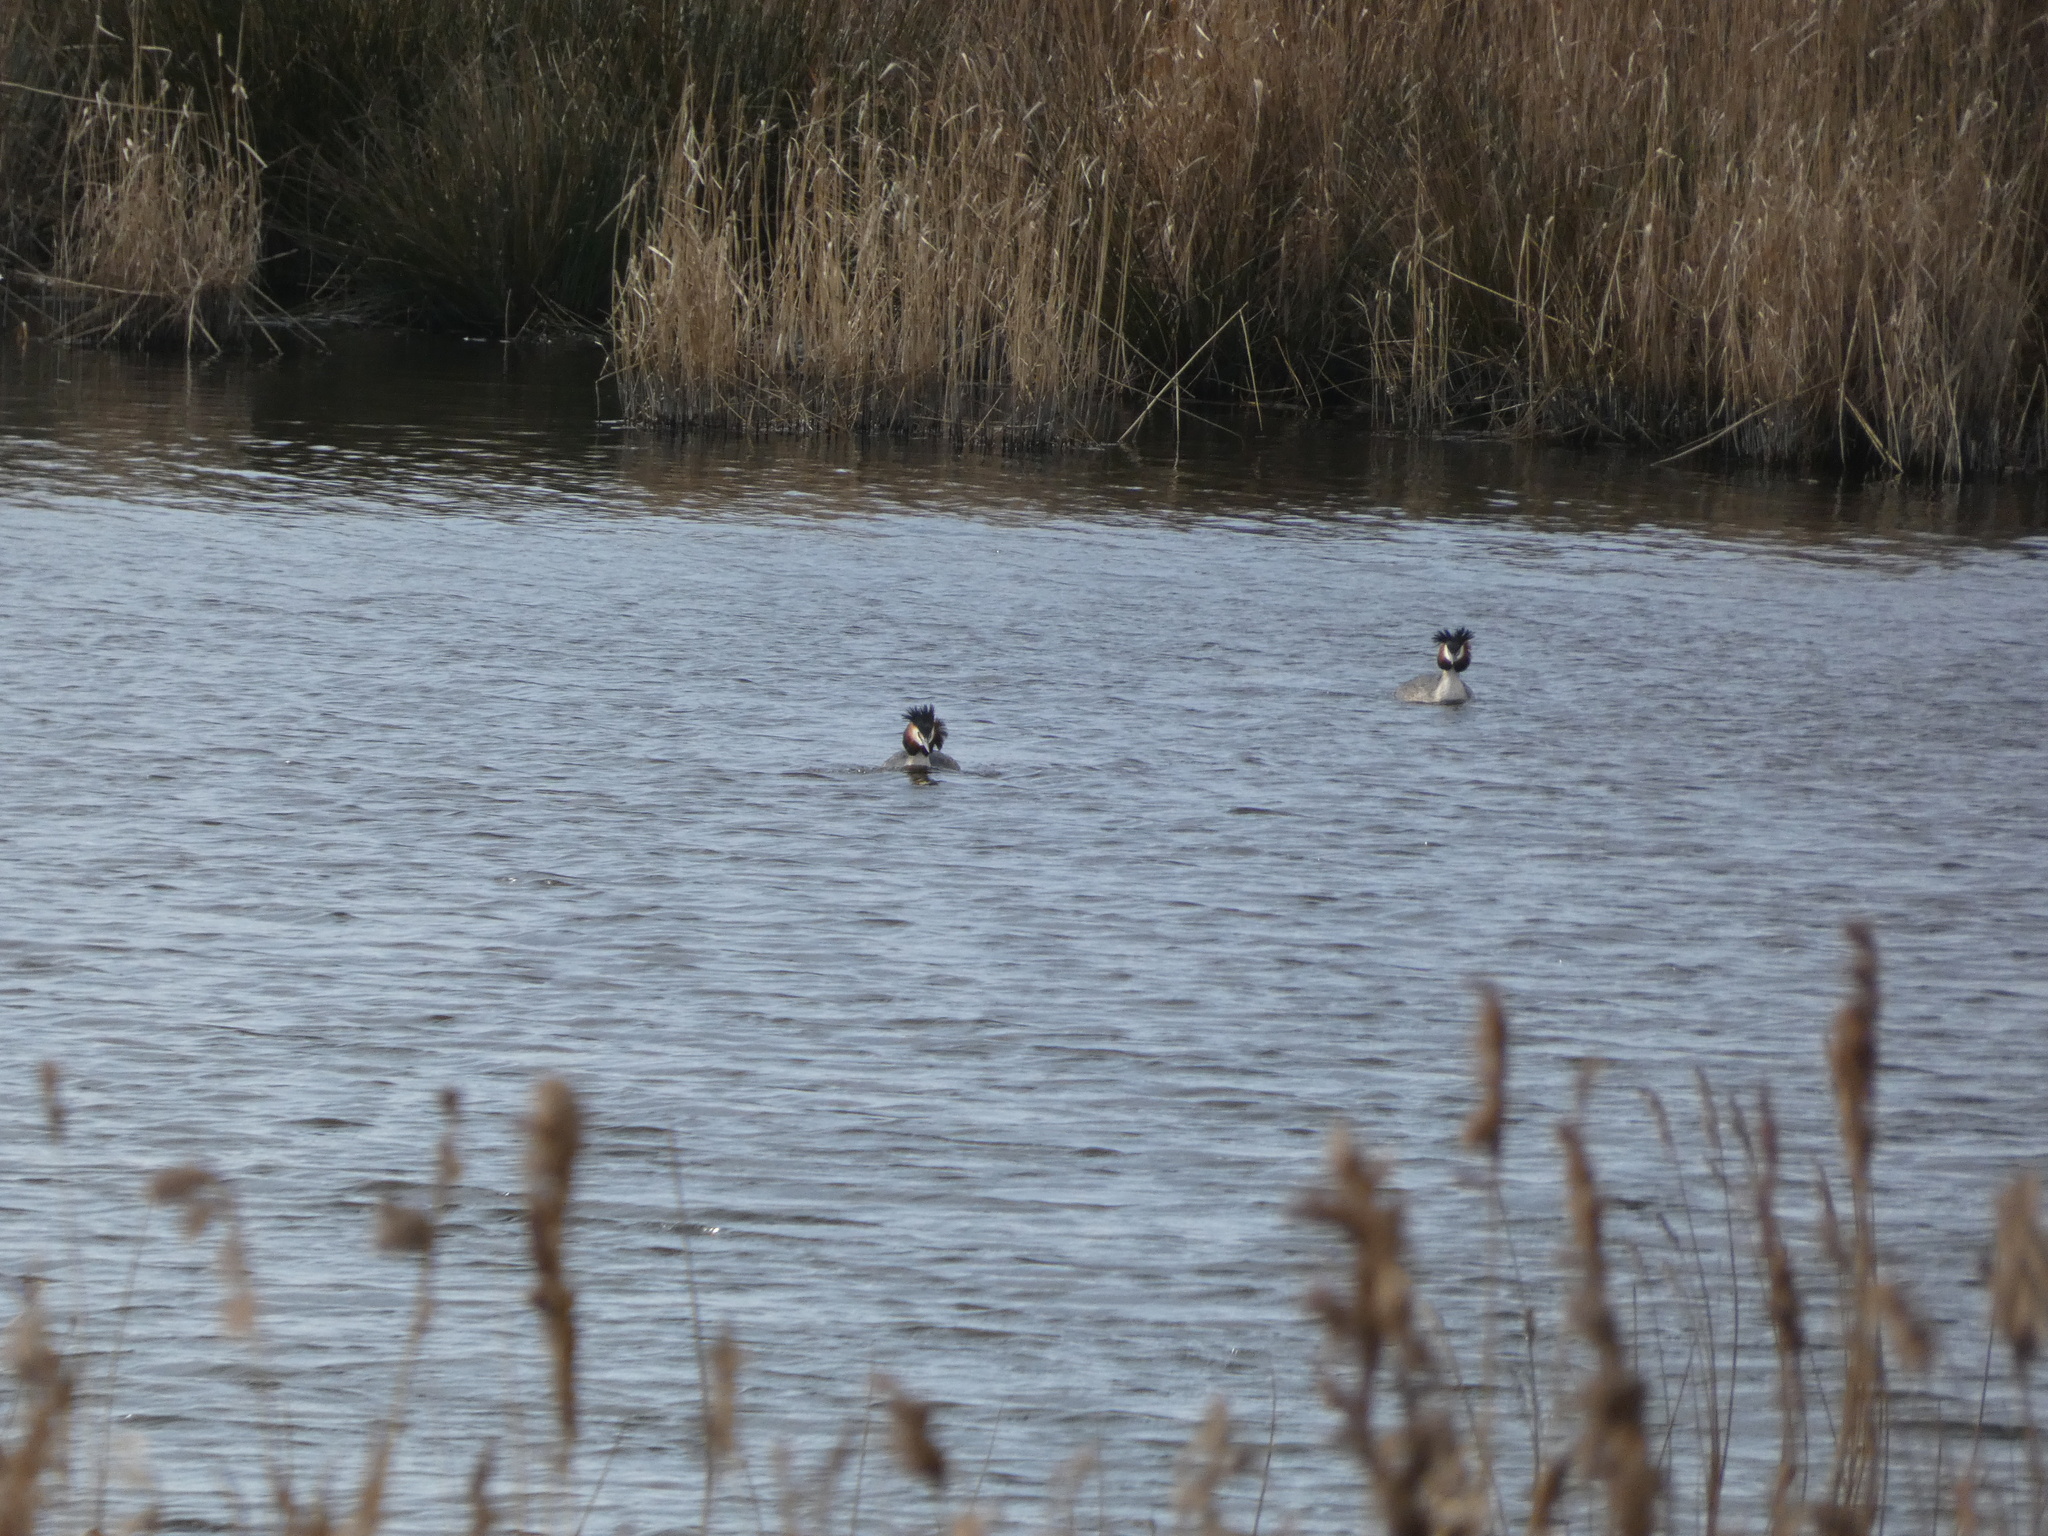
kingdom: Animalia
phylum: Chordata
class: Aves
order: Podicipediformes
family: Podicipedidae
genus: Podiceps
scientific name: Podiceps cristatus
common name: Great crested grebe
